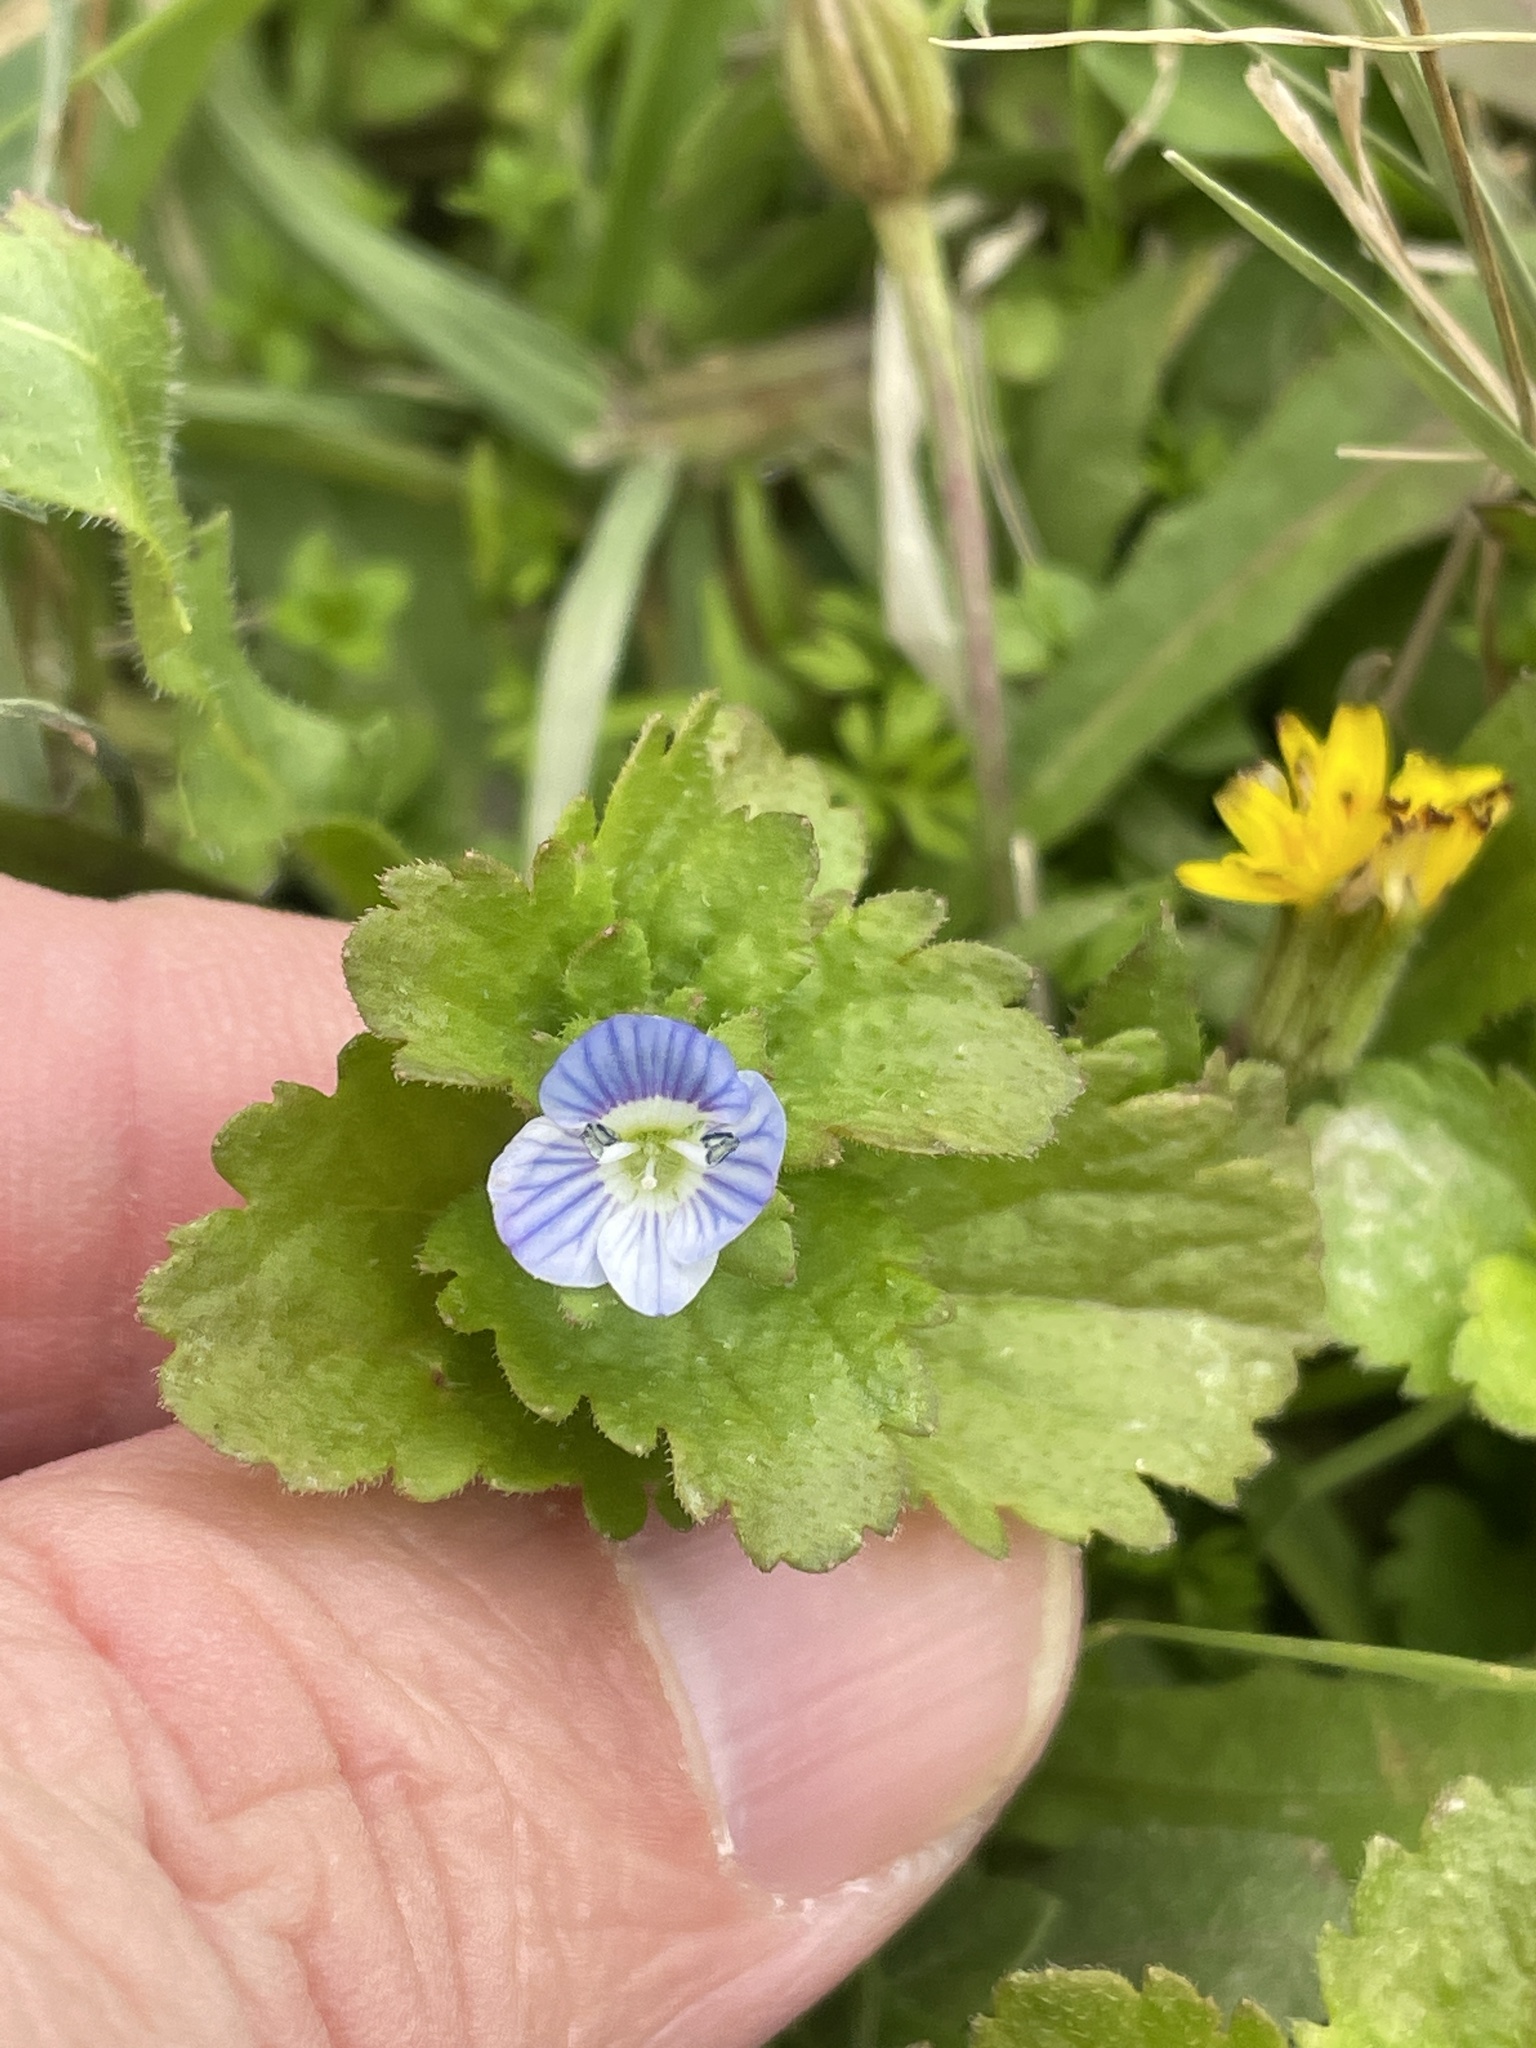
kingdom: Plantae
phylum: Tracheophyta
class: Magnoliopsida
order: Lamiales
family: Plantaginaceae
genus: Veronica
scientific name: Veronica persica
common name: Common field-speedwell
